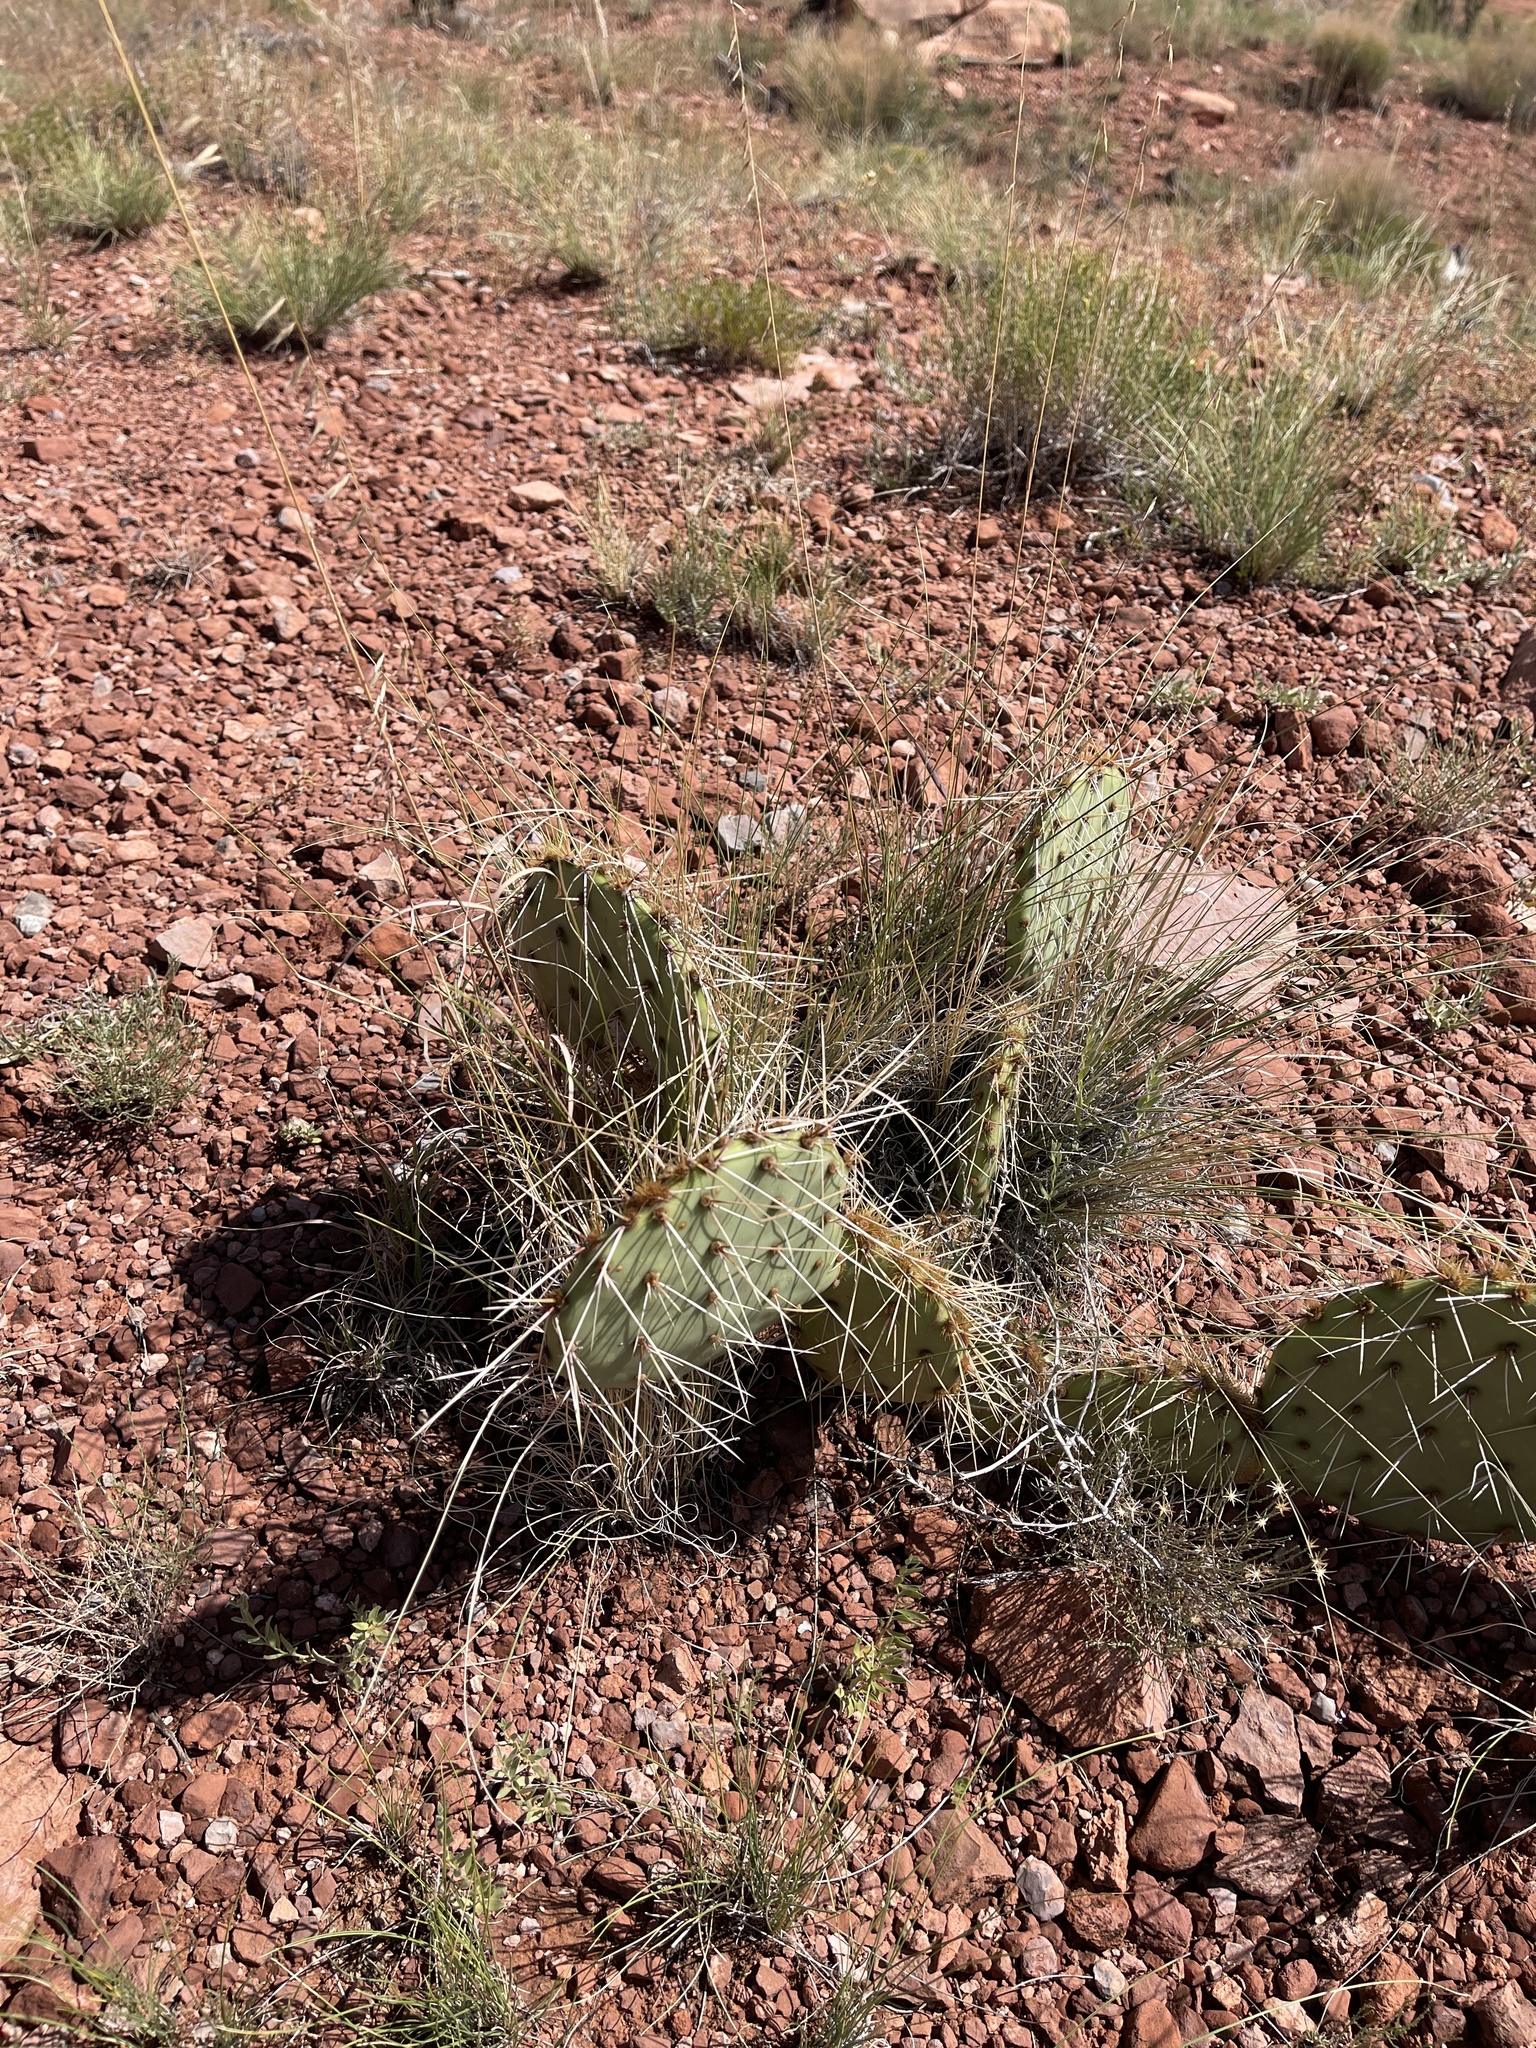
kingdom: Plantae
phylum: Tracheophyta
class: Magnoliopsida
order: Caryophyllales
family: Cactaceae
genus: Opuntia
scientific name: Opuntia polyacantha
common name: Plains prickly-pear
